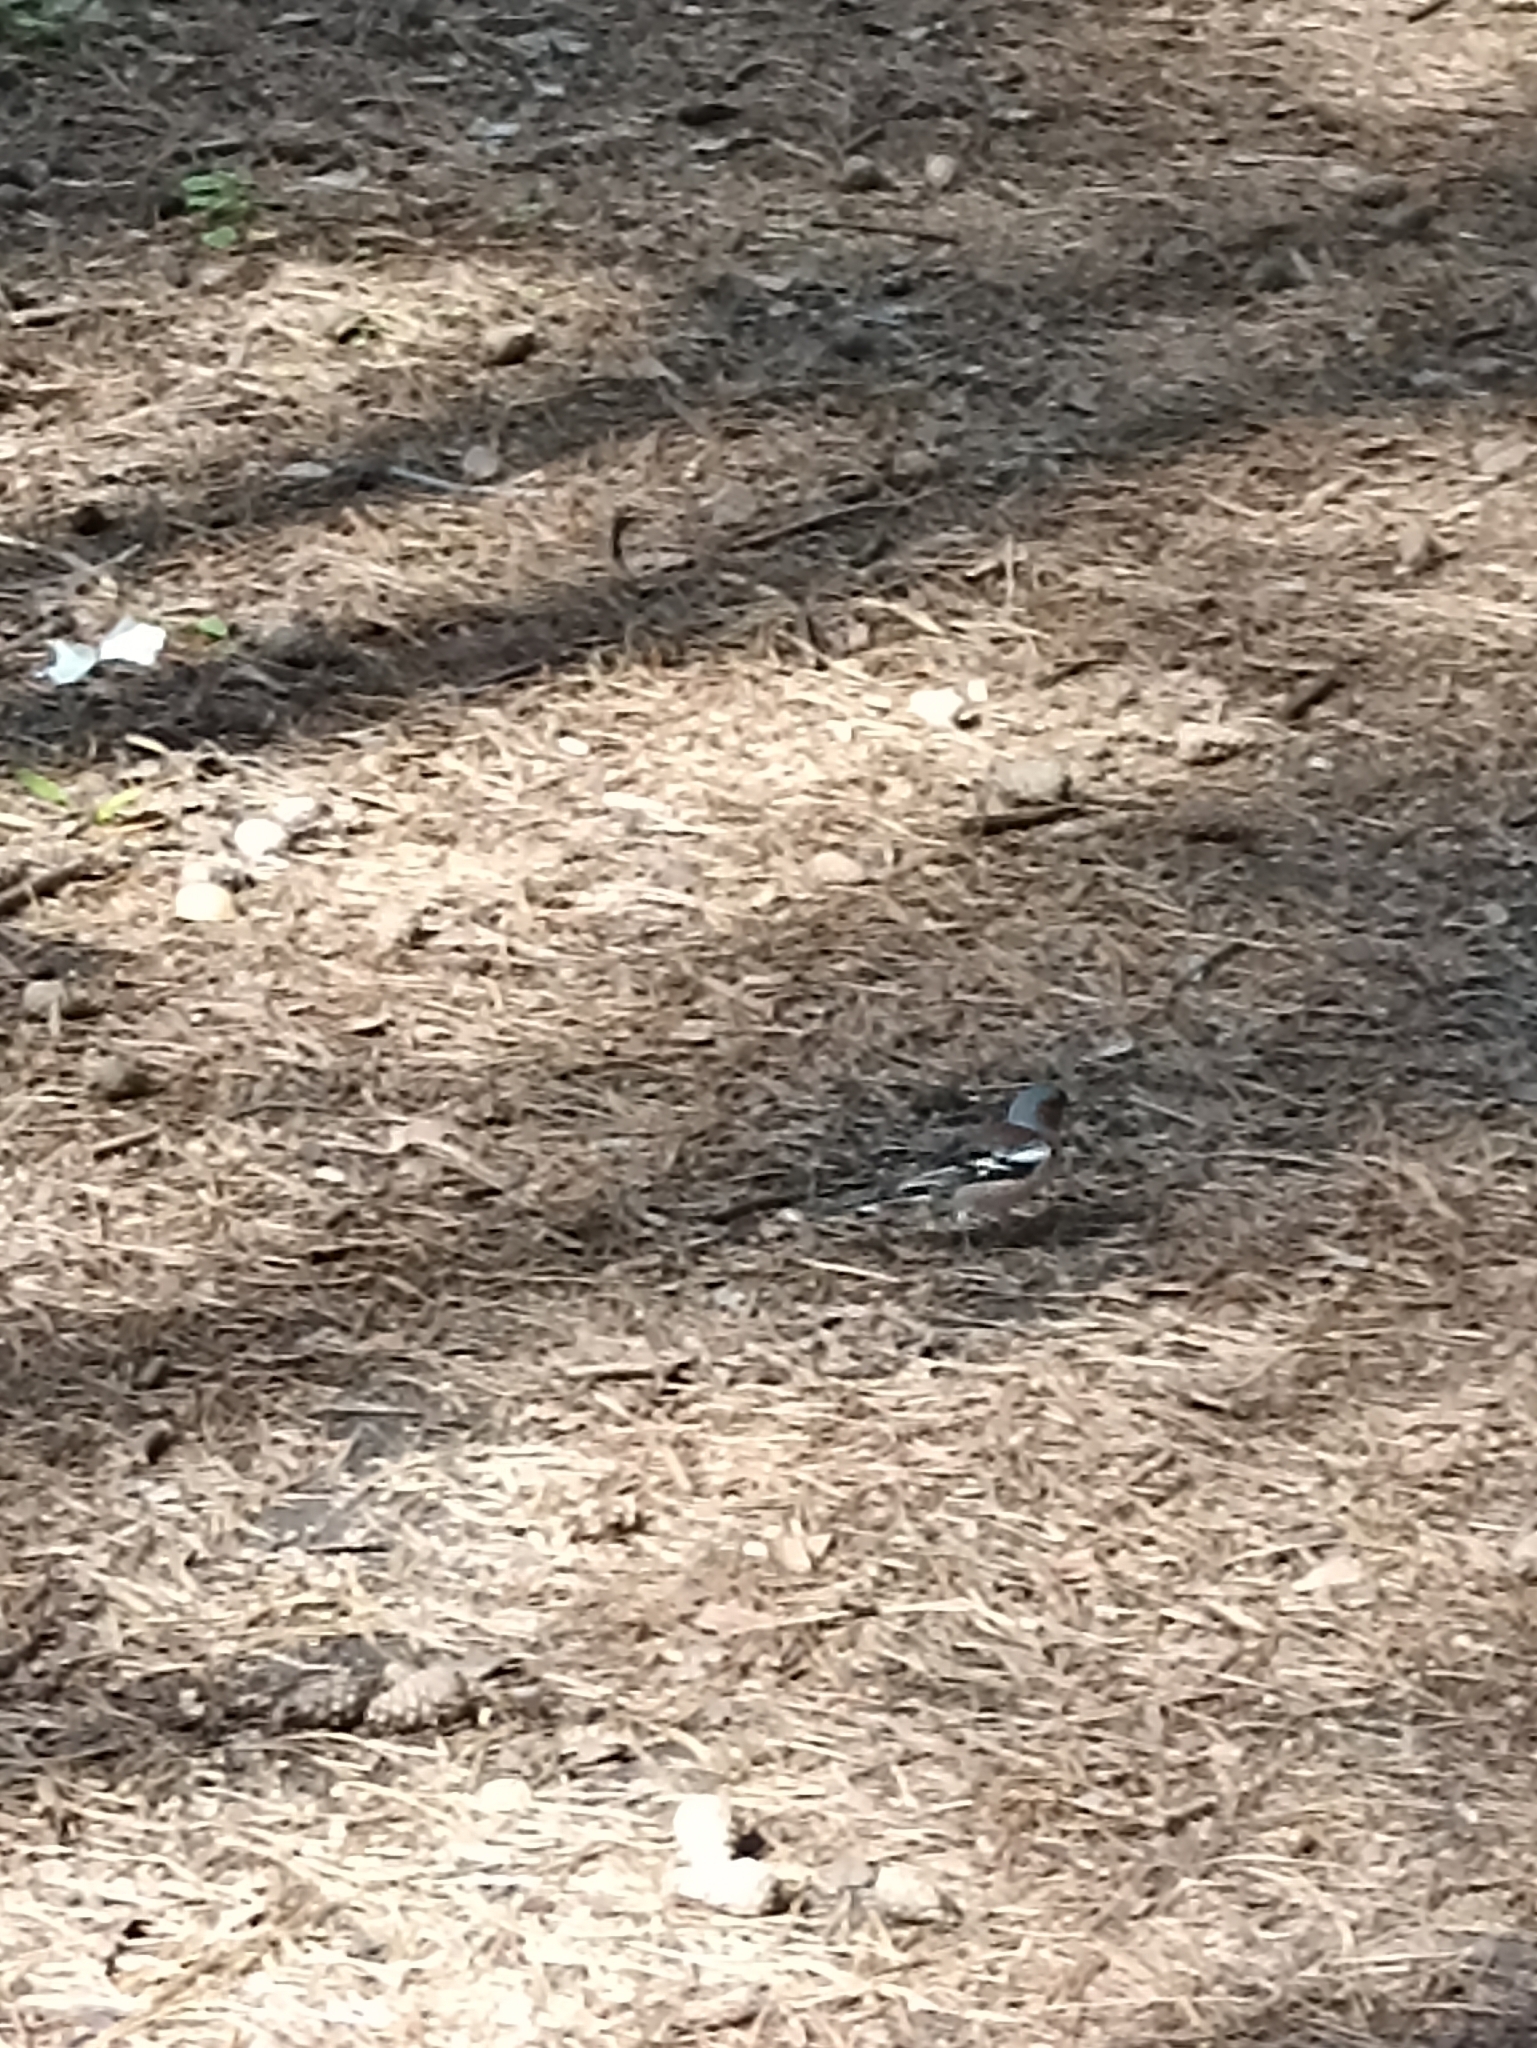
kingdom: Animalia
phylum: Chordata
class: Aves
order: Passeriformes
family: Fringillidae
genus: Fringilla
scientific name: Fringilla coelebs
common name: Common chaffinch
